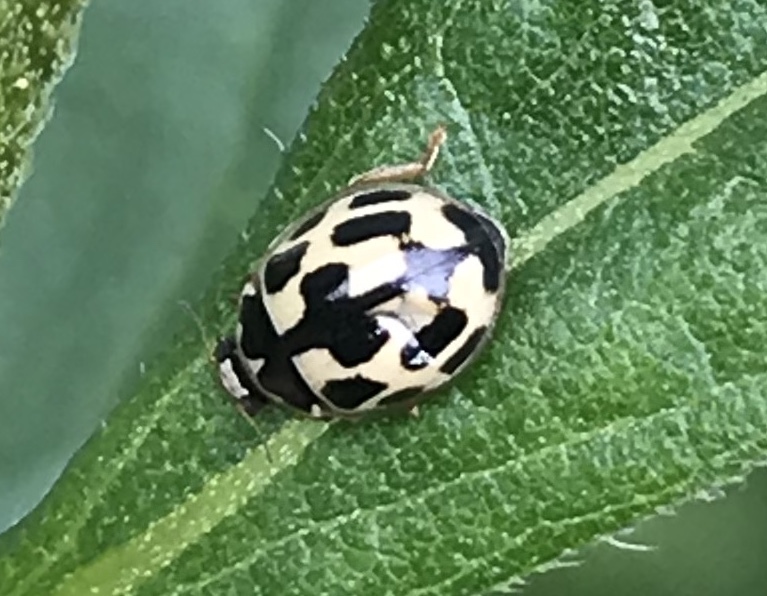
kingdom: Animalia
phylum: Arthropoda
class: Insecta
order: Coleoptera
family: Coccinellidae
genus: Propylaea
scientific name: Propylaea quatuordecimpunctata
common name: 14-spotted ladybird beetle
